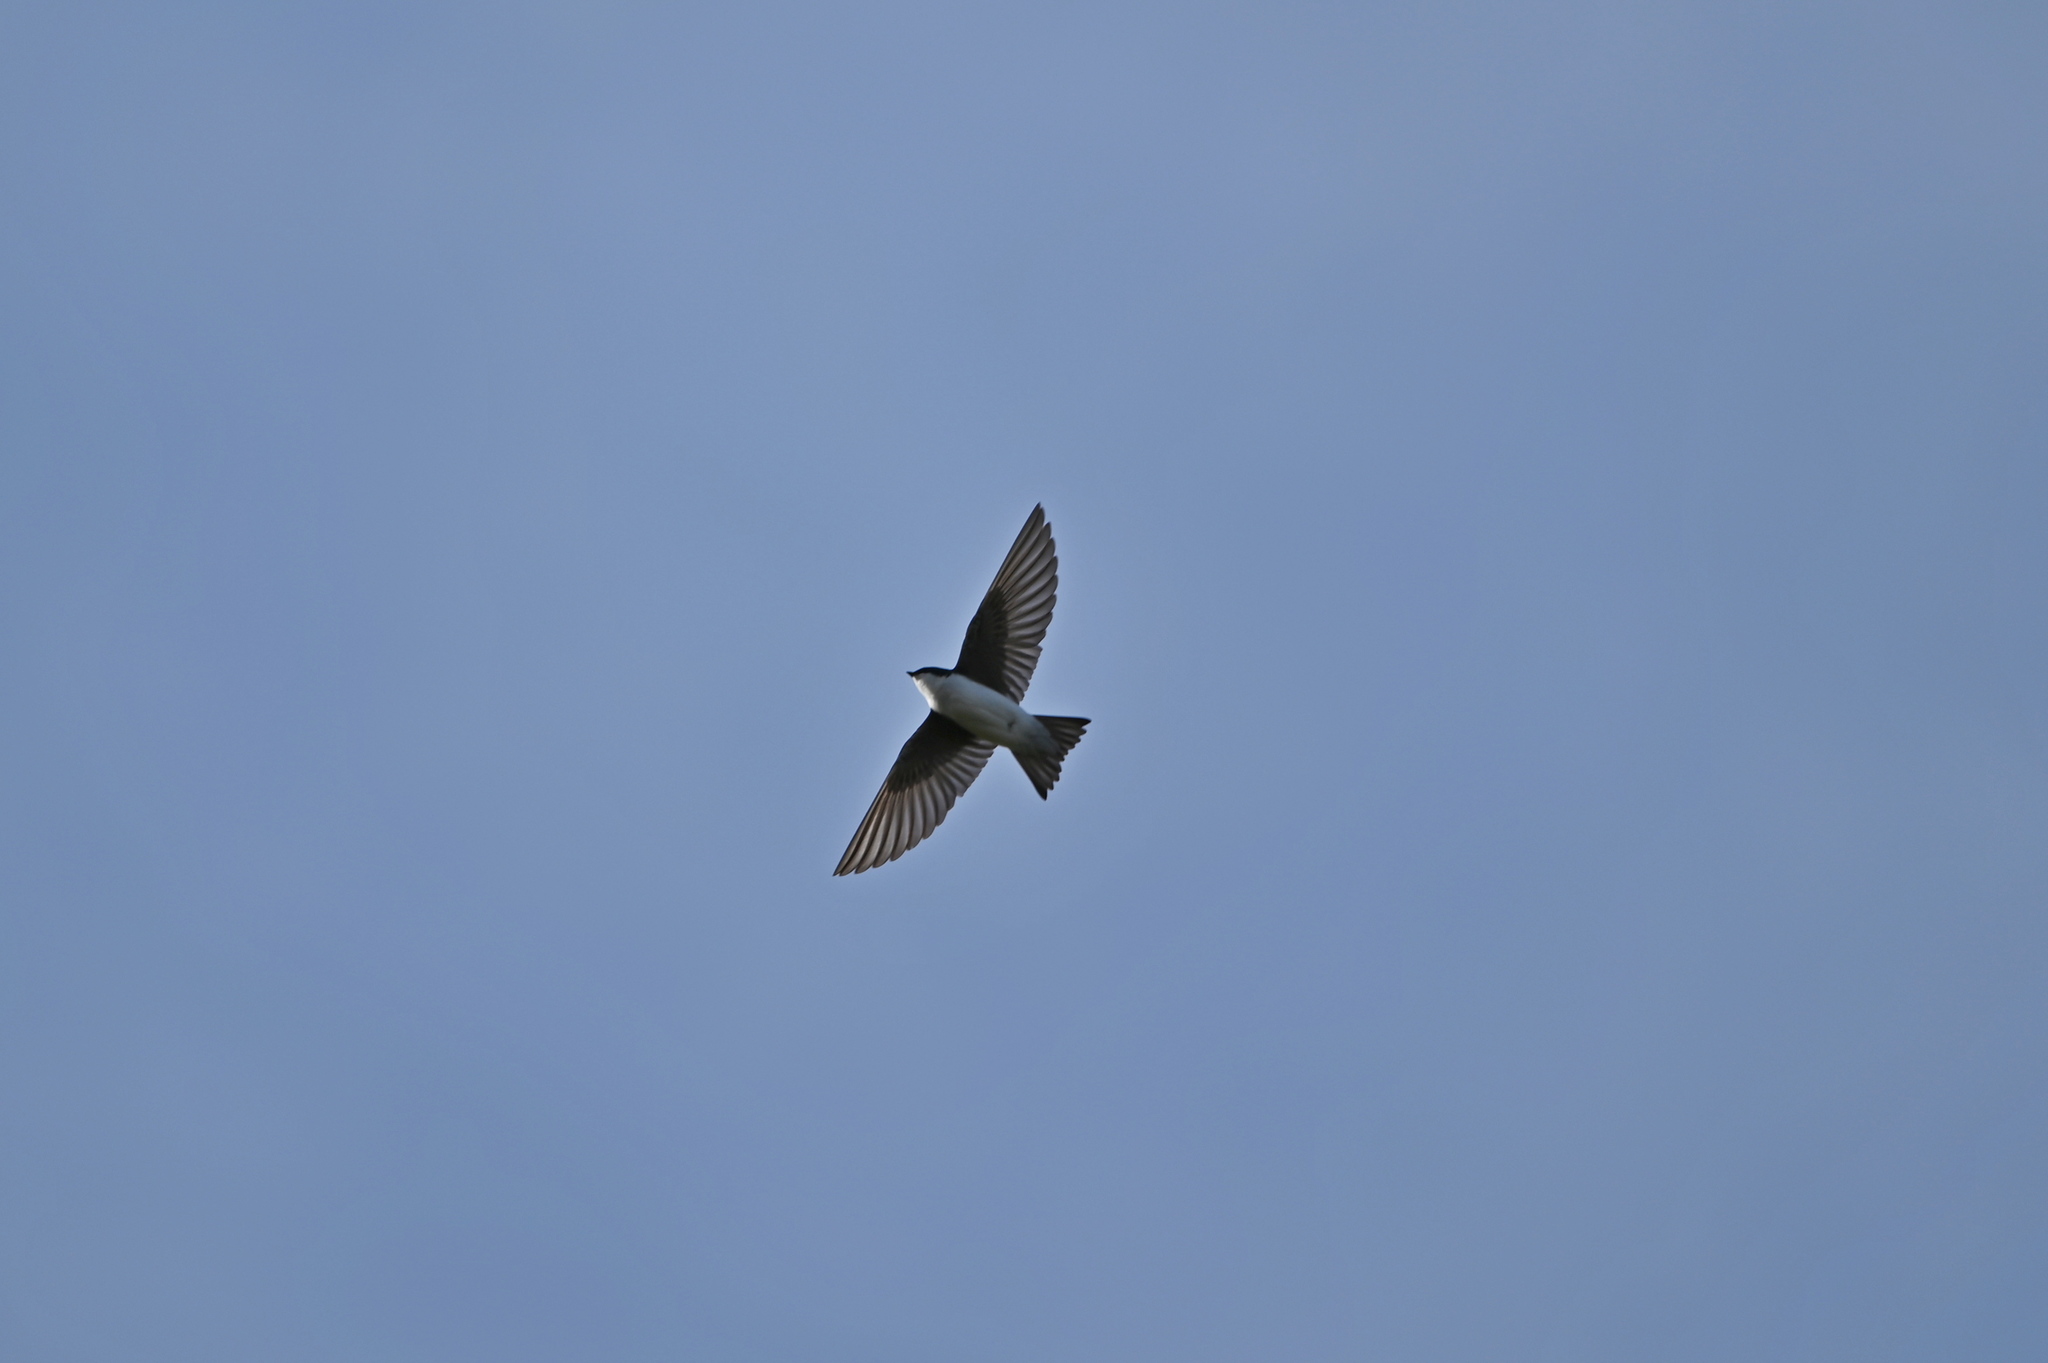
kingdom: Animalia
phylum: Chordata
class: Aves
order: Passeriformes
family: Hirundinidae
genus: Tachycineta
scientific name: Tachycineta bicolor
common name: Tree swallow
